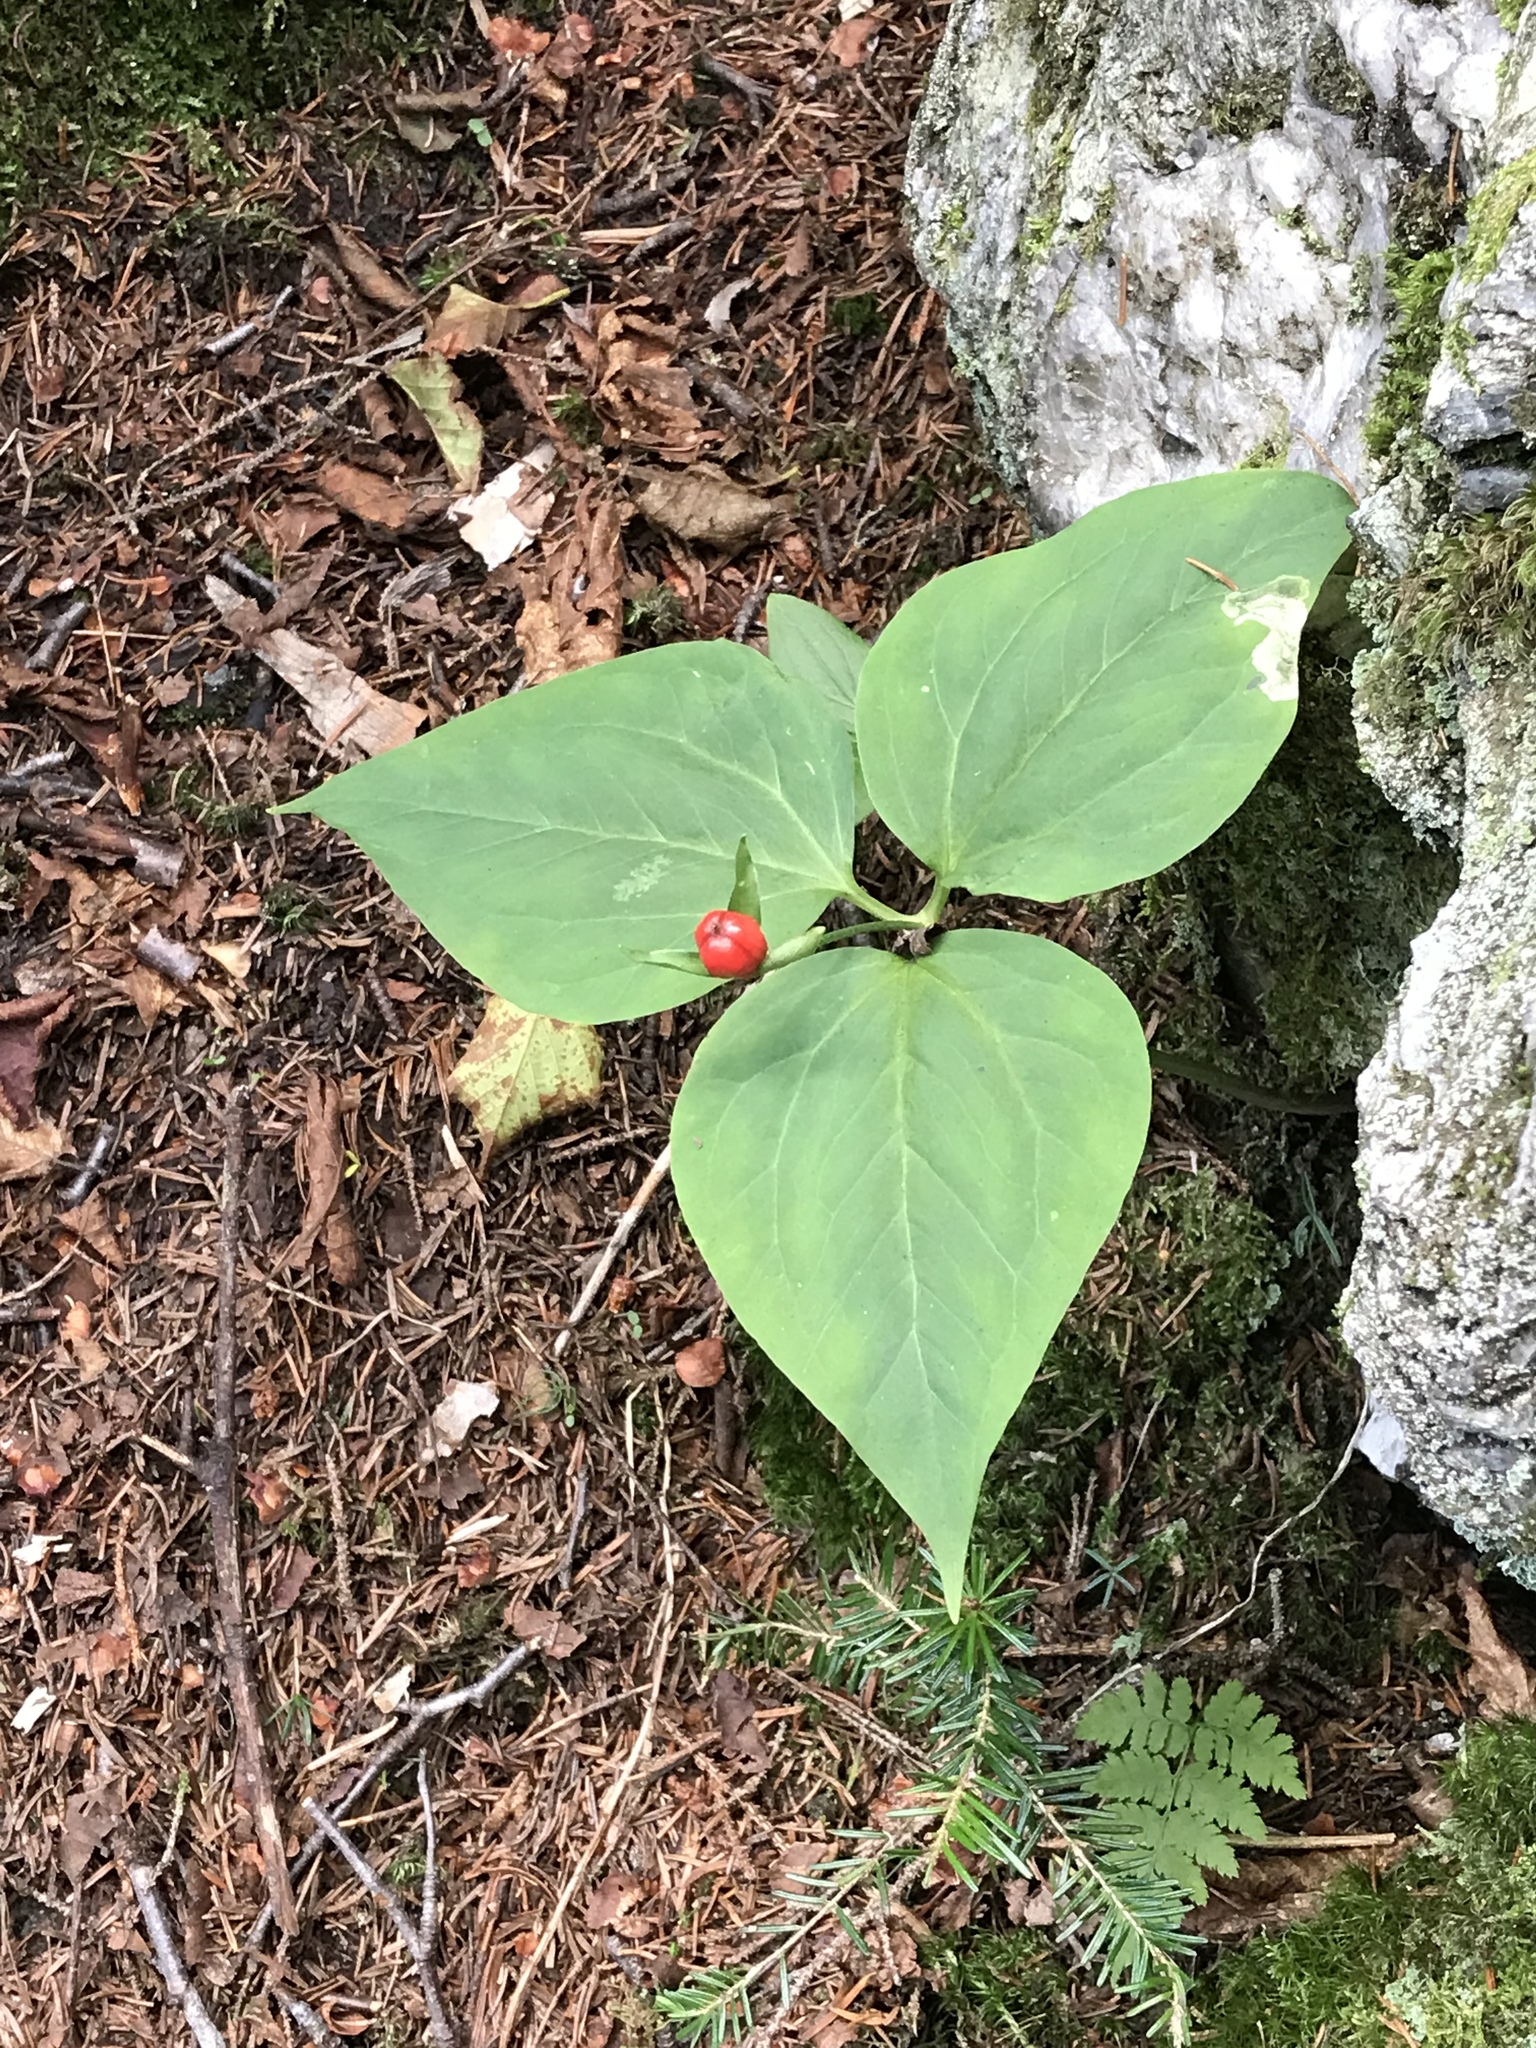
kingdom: Plantae
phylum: Tracheophyta
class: Liliopsida
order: Liliales
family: Melanthiaceae
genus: Trillium
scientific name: Trillium undulatum
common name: Paint trillium
